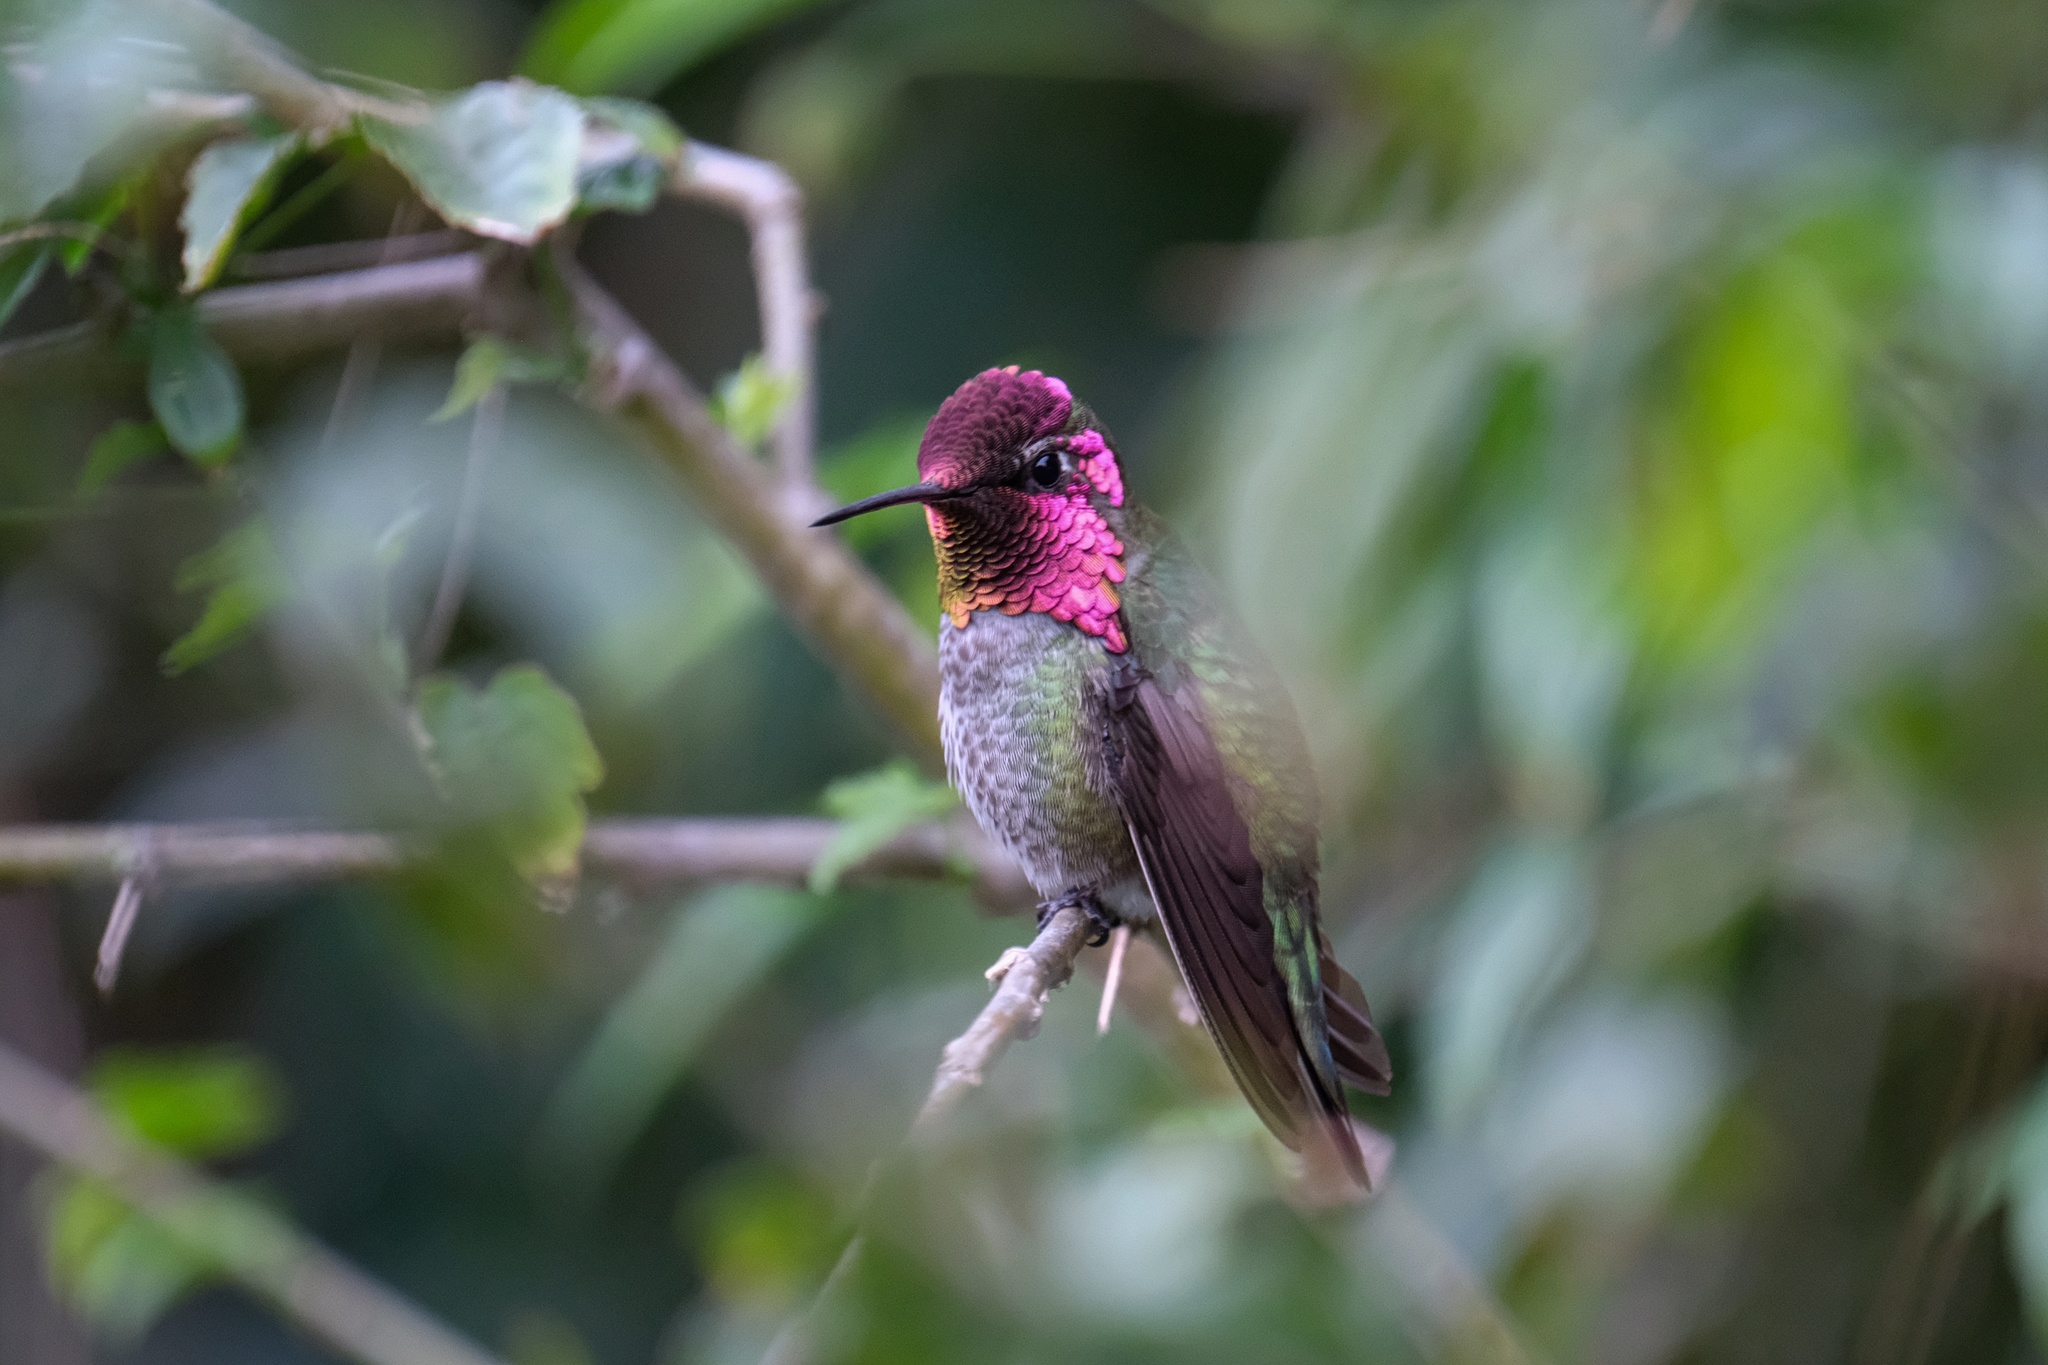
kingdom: Animalia
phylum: Chordata
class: Aves
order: Apodiformes
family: Trochilidae
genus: Calypte
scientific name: Calypte anna
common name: Anna's hummingbird
